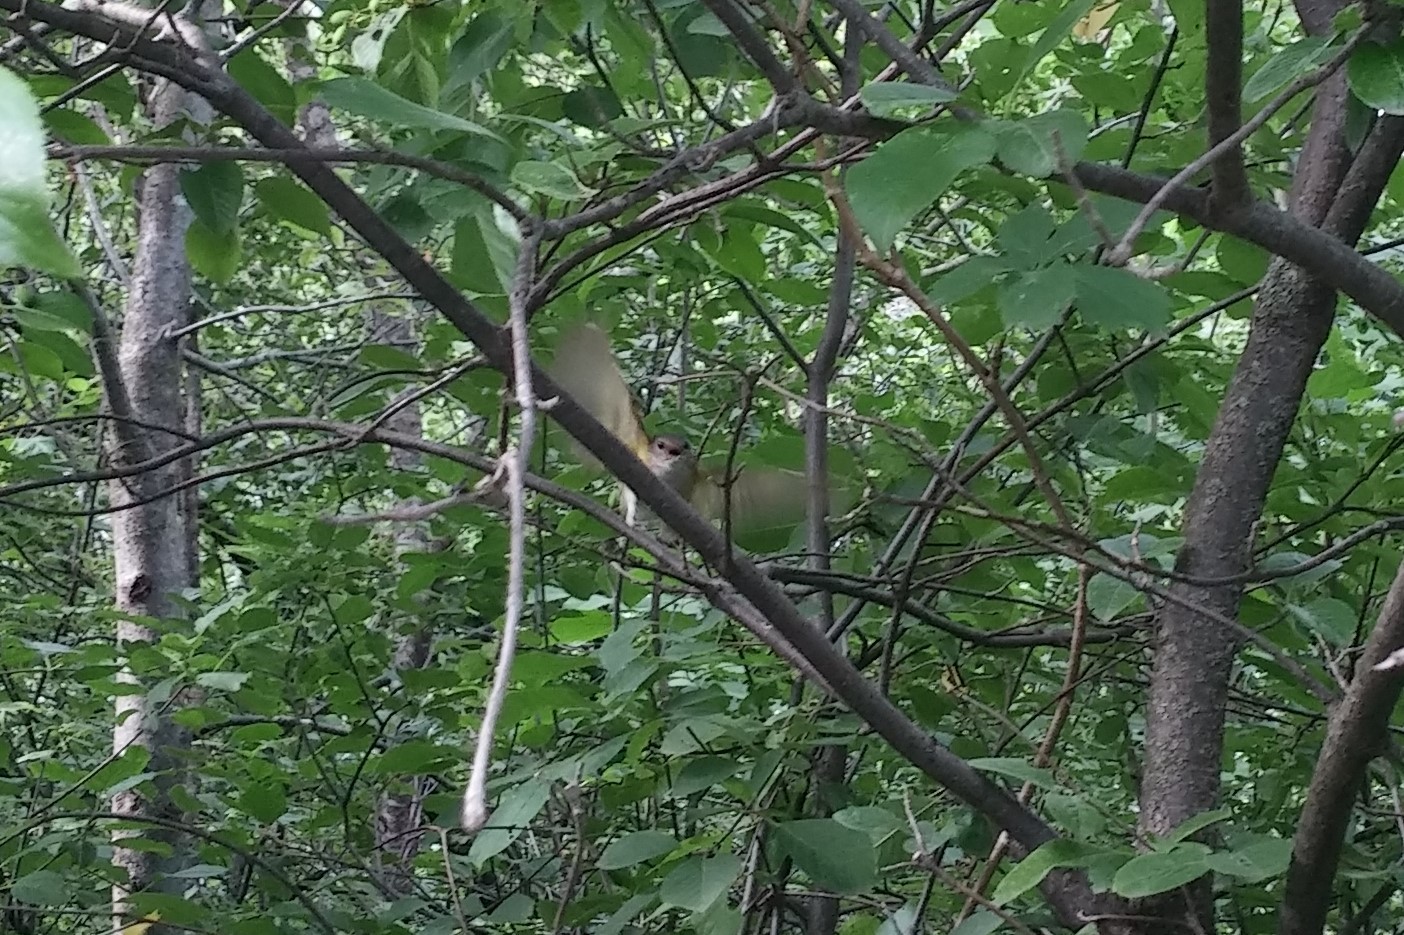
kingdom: Animalia
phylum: Chordata
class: Aves
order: Passeriformes
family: Parulidae
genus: Setophaga
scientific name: Setophaga ruticilla
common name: American redstart
